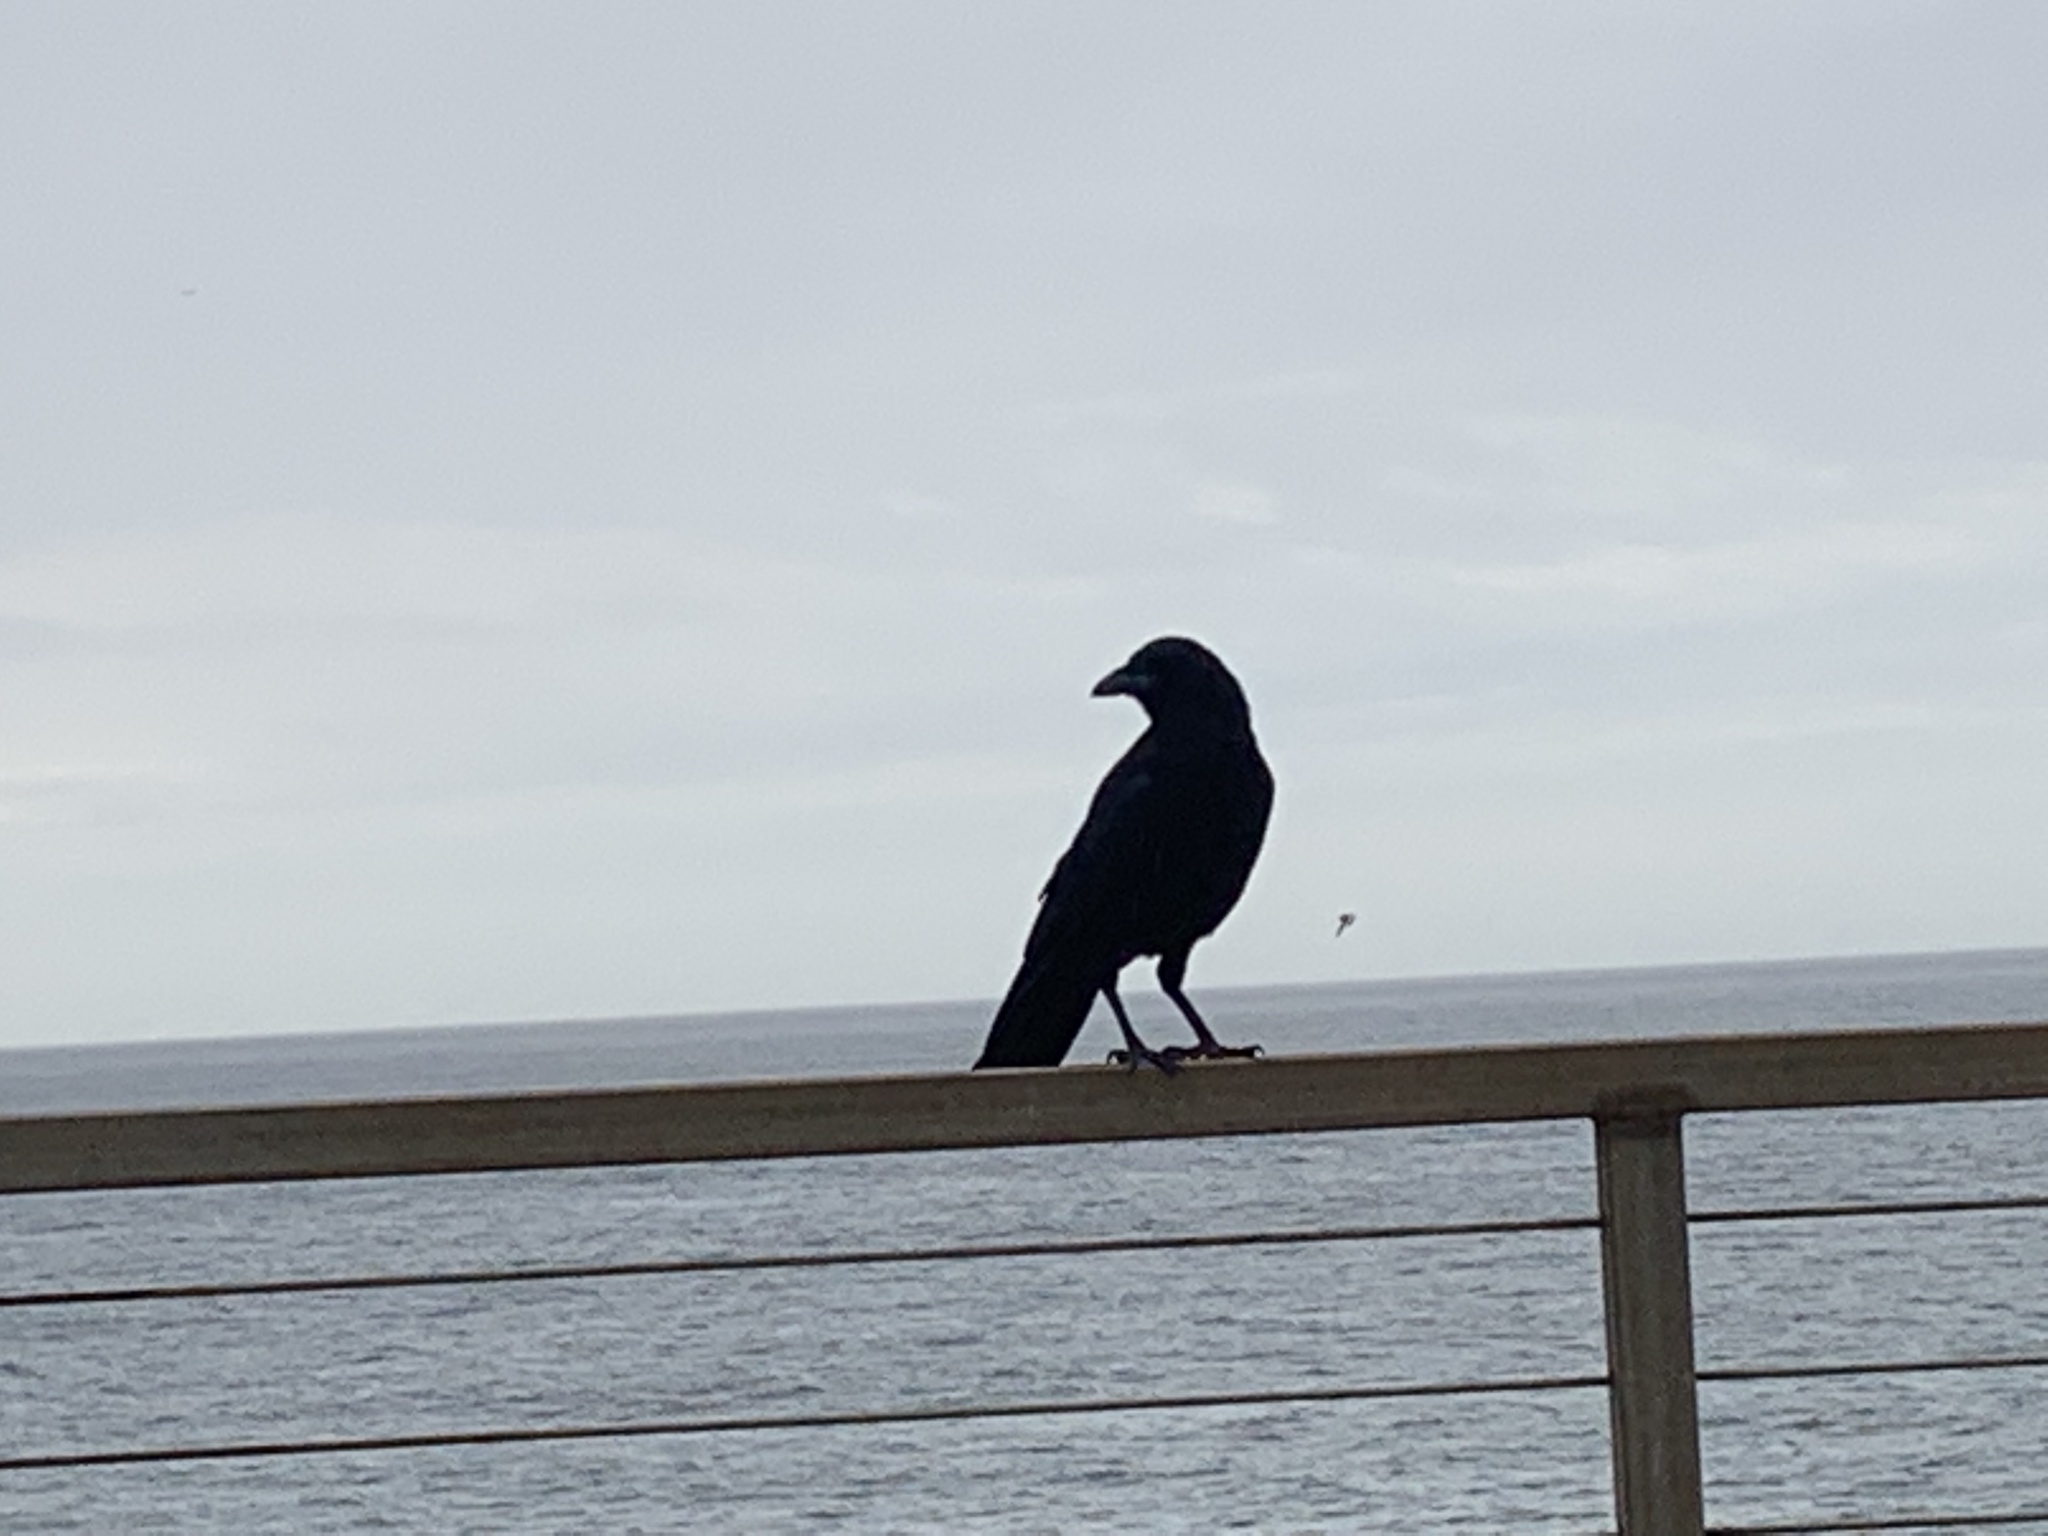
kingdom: Animalia
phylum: Chordata
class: Aves
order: Passeriformes
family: Corvidae
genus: Corvus
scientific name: Corvus brachyrhynchos
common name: American crow
